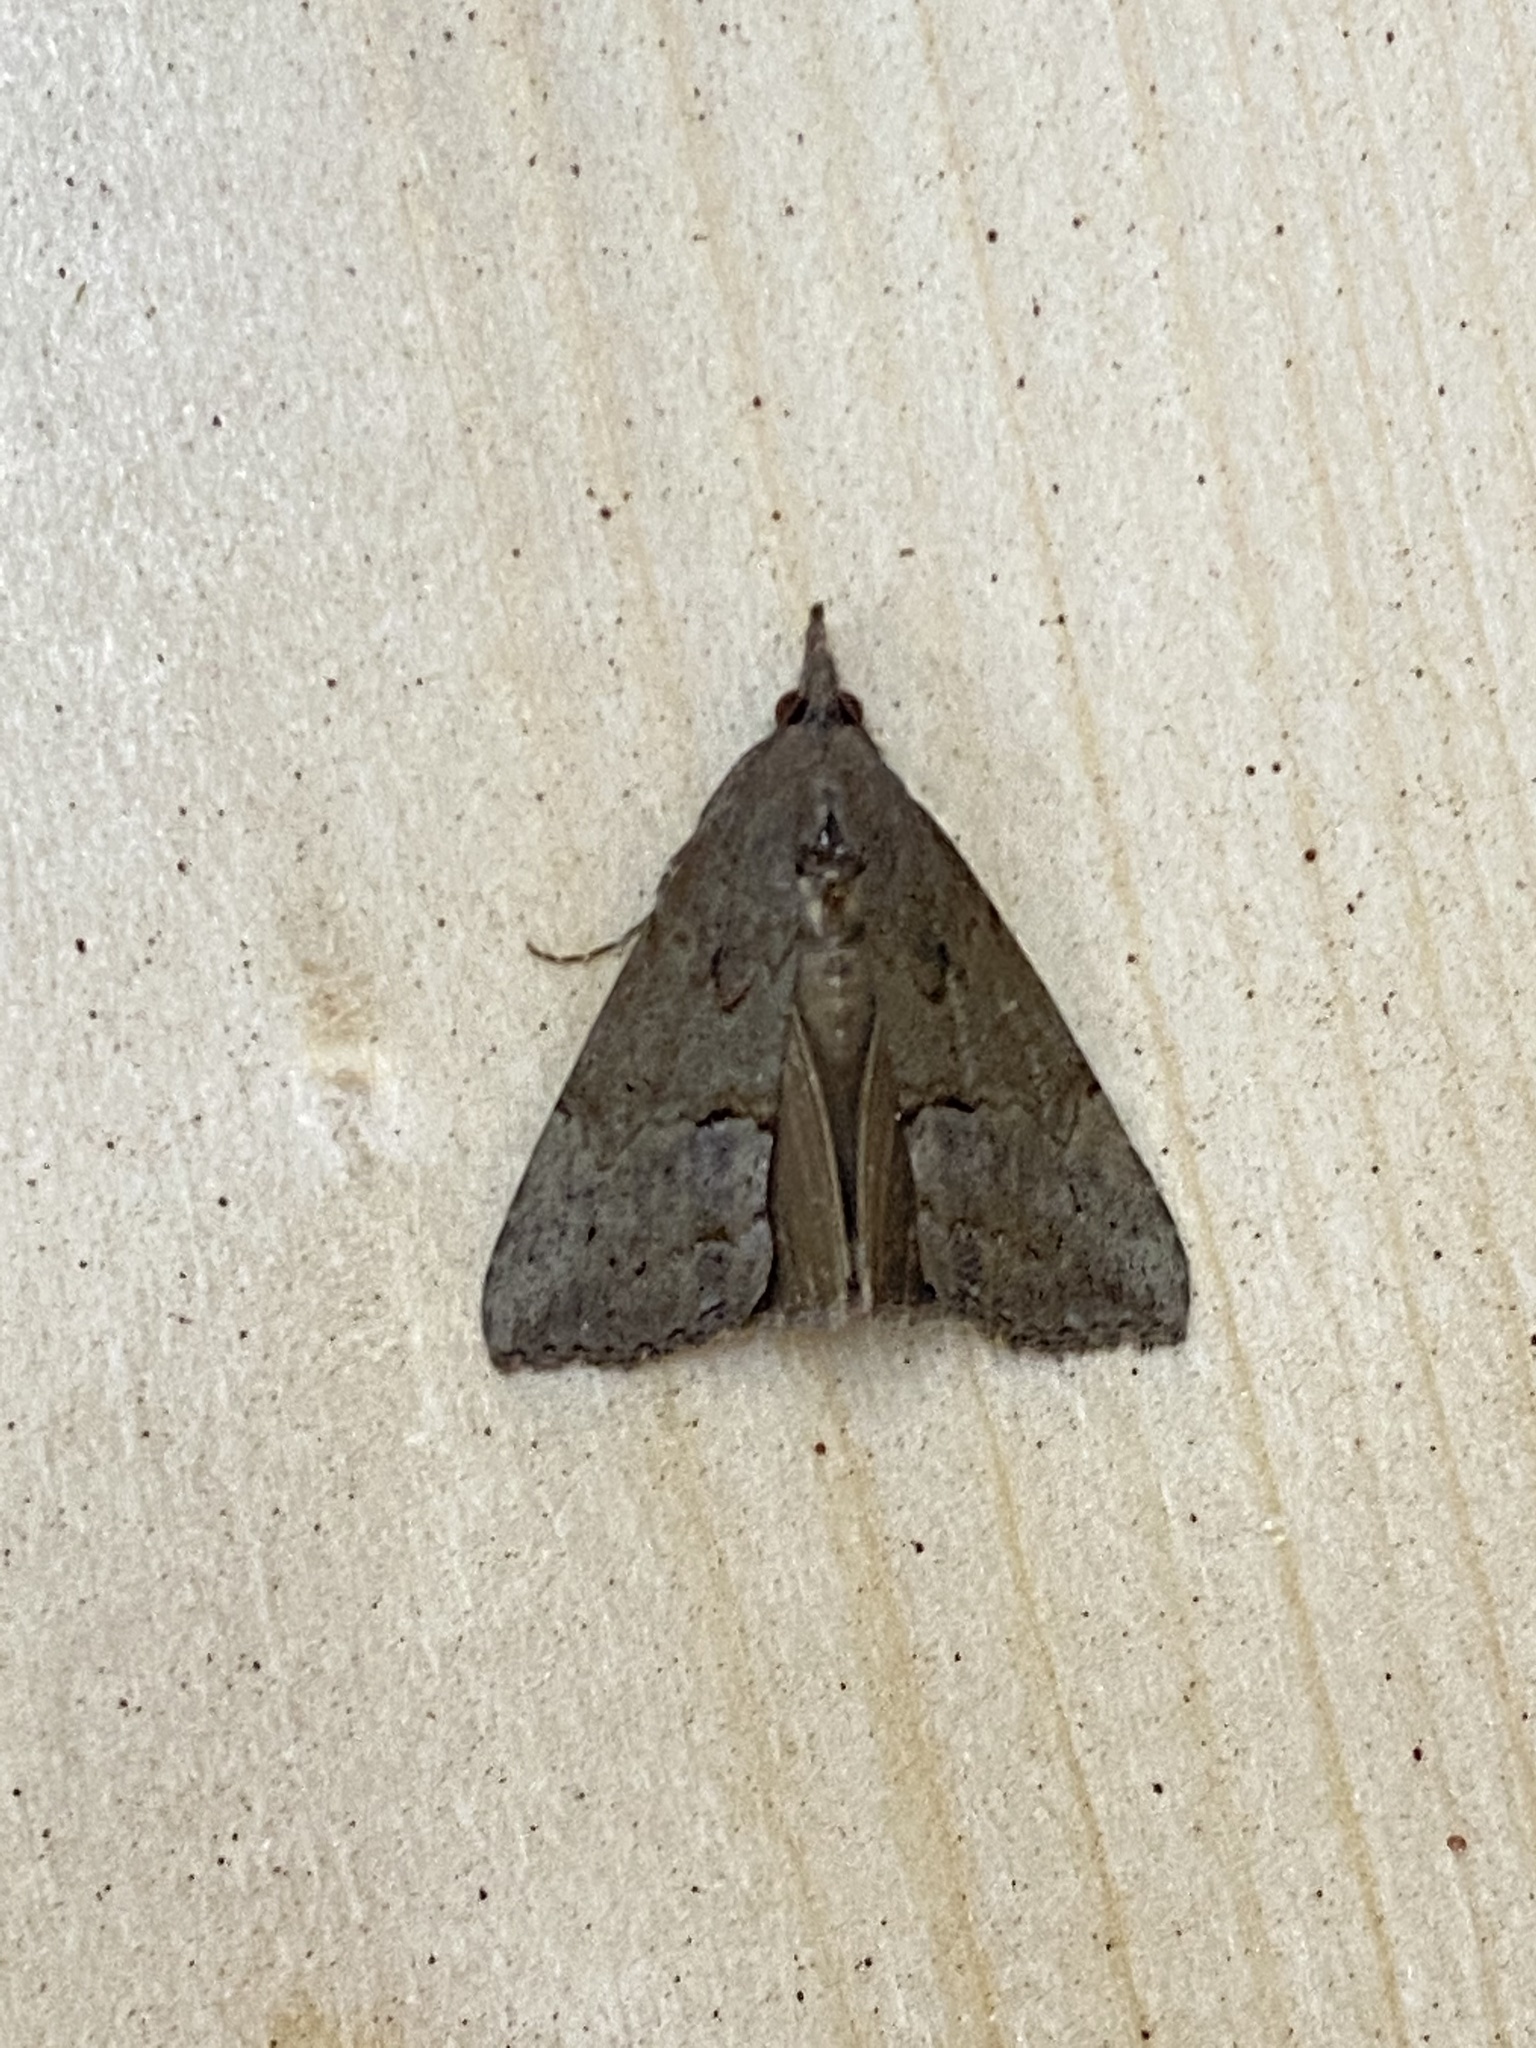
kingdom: Animalia
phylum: Arthropoda
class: Insecta
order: Lepidoptera
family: Erebidae
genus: Hypena
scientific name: Hypena scabra
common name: Green cloverworm
